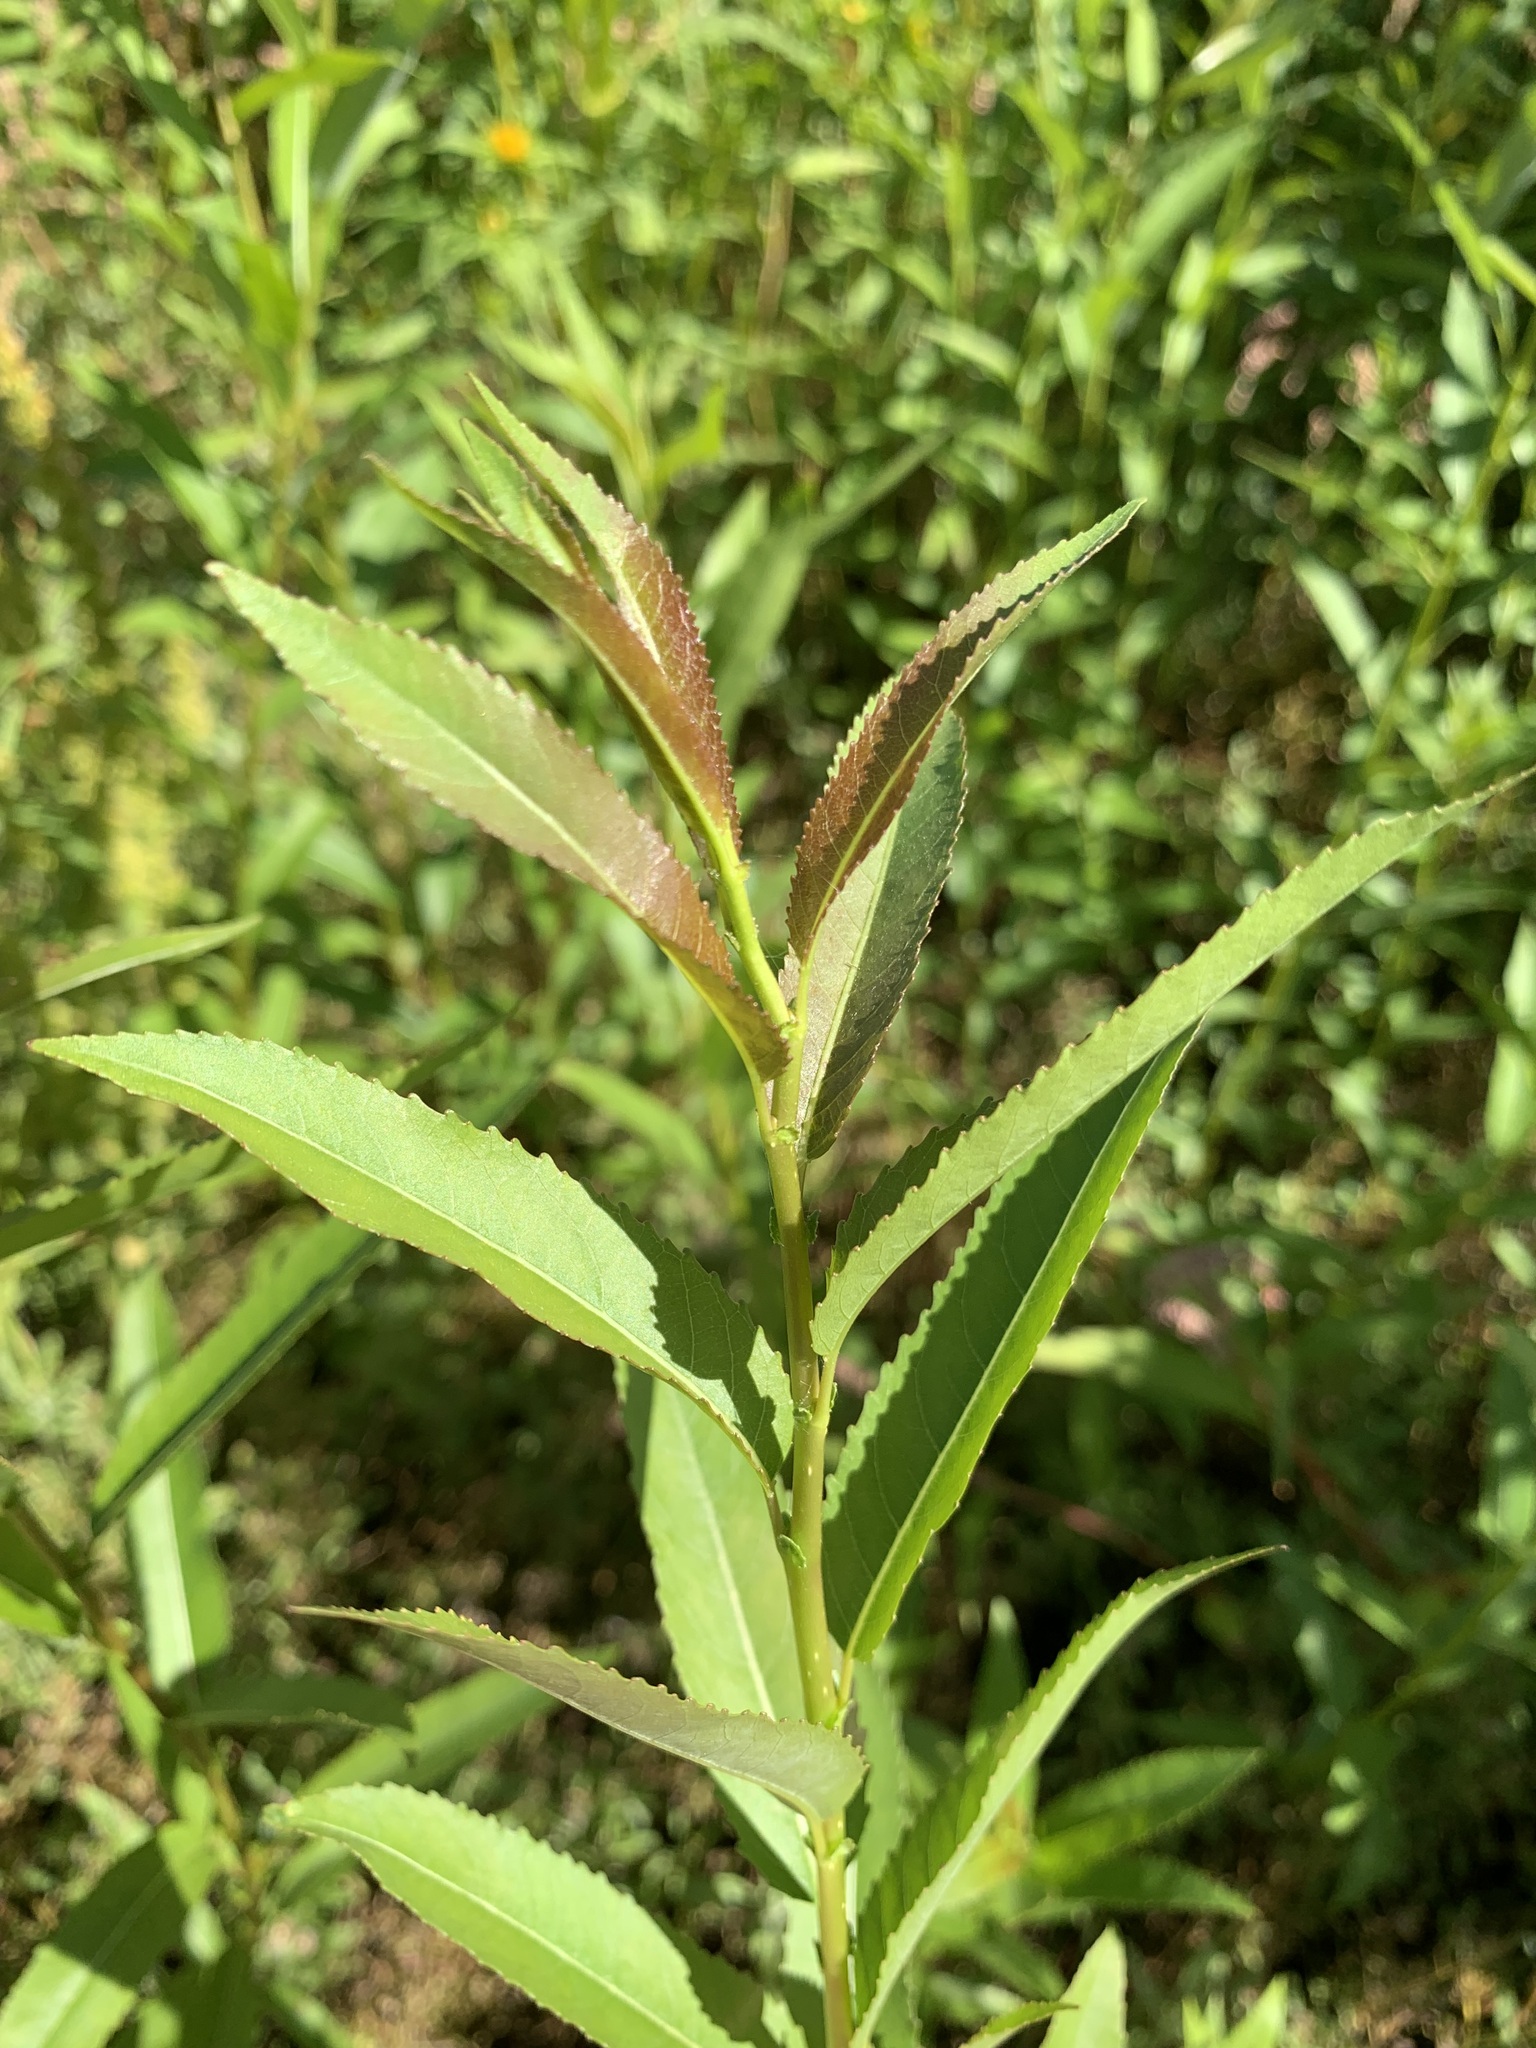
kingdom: Plantae
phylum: Tracheophyta
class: Magnoliopsida
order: Malpighiales
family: Salicaceae
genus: Salix
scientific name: Salix triandra
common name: Almond willow
